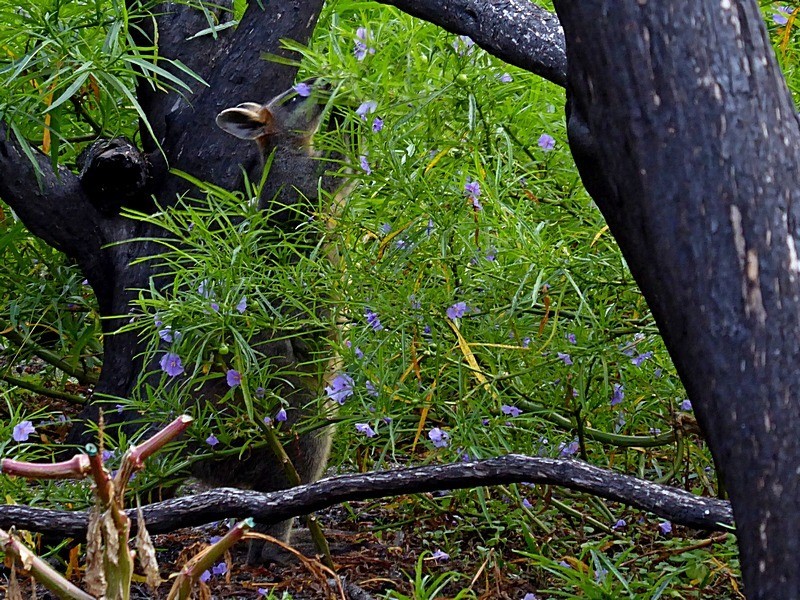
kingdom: Animalia
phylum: Chordata
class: Mammalia
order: Diprotodontia
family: Macropodidae
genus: Wallabia
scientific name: Wallabia bicolor
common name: Swamp wallaby
